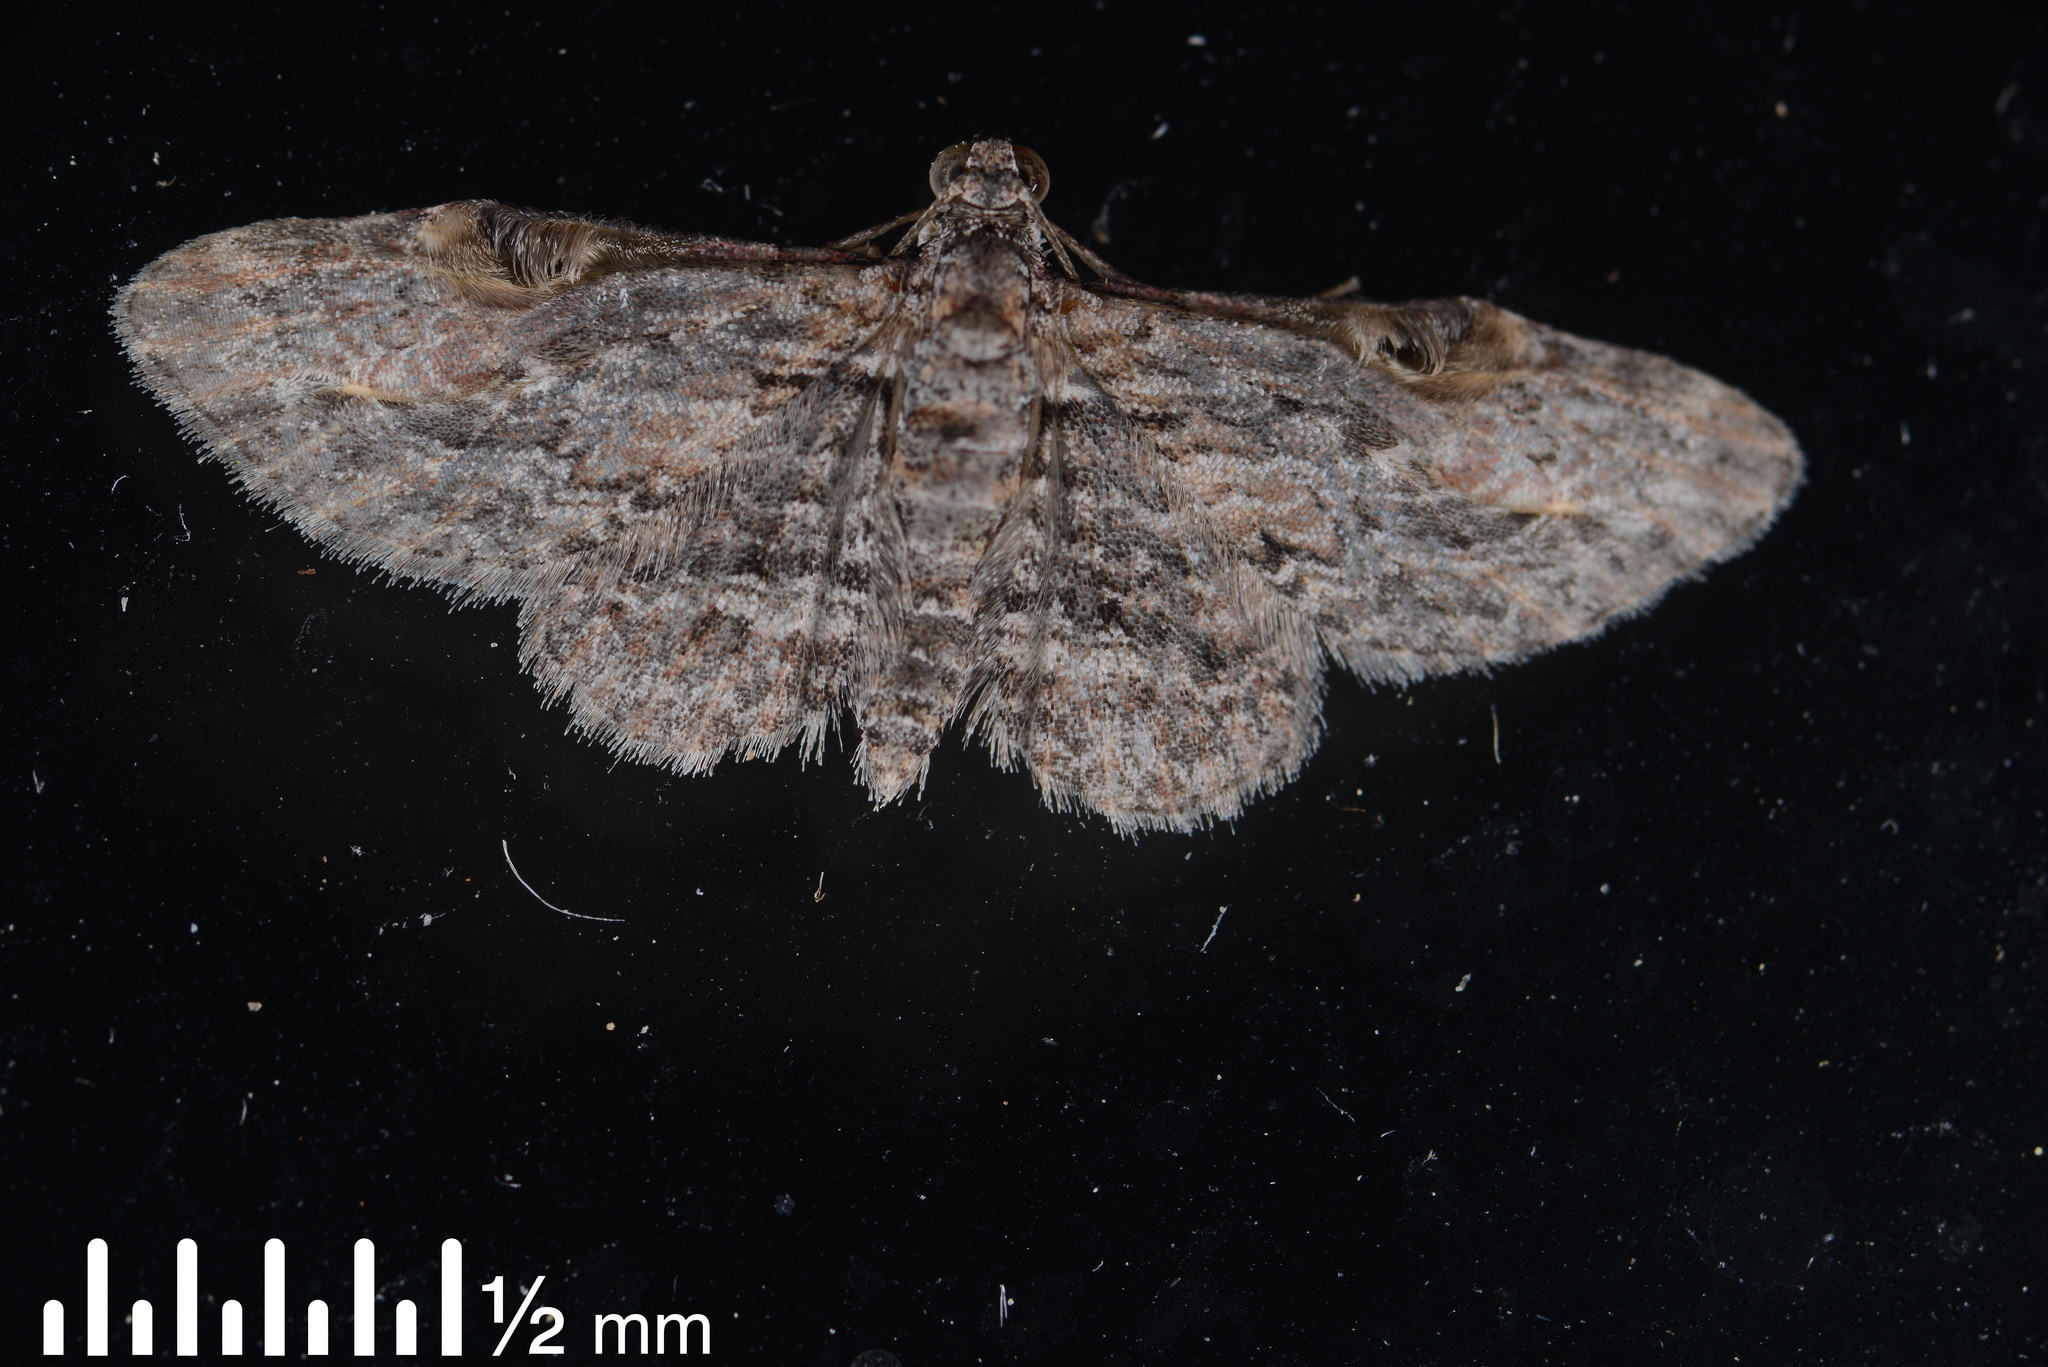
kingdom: Animalia
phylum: Arthropoda
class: Insecta
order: Lepidoptera
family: Geometridae
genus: Chloroclystis
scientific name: Chloroclystis insigillata
